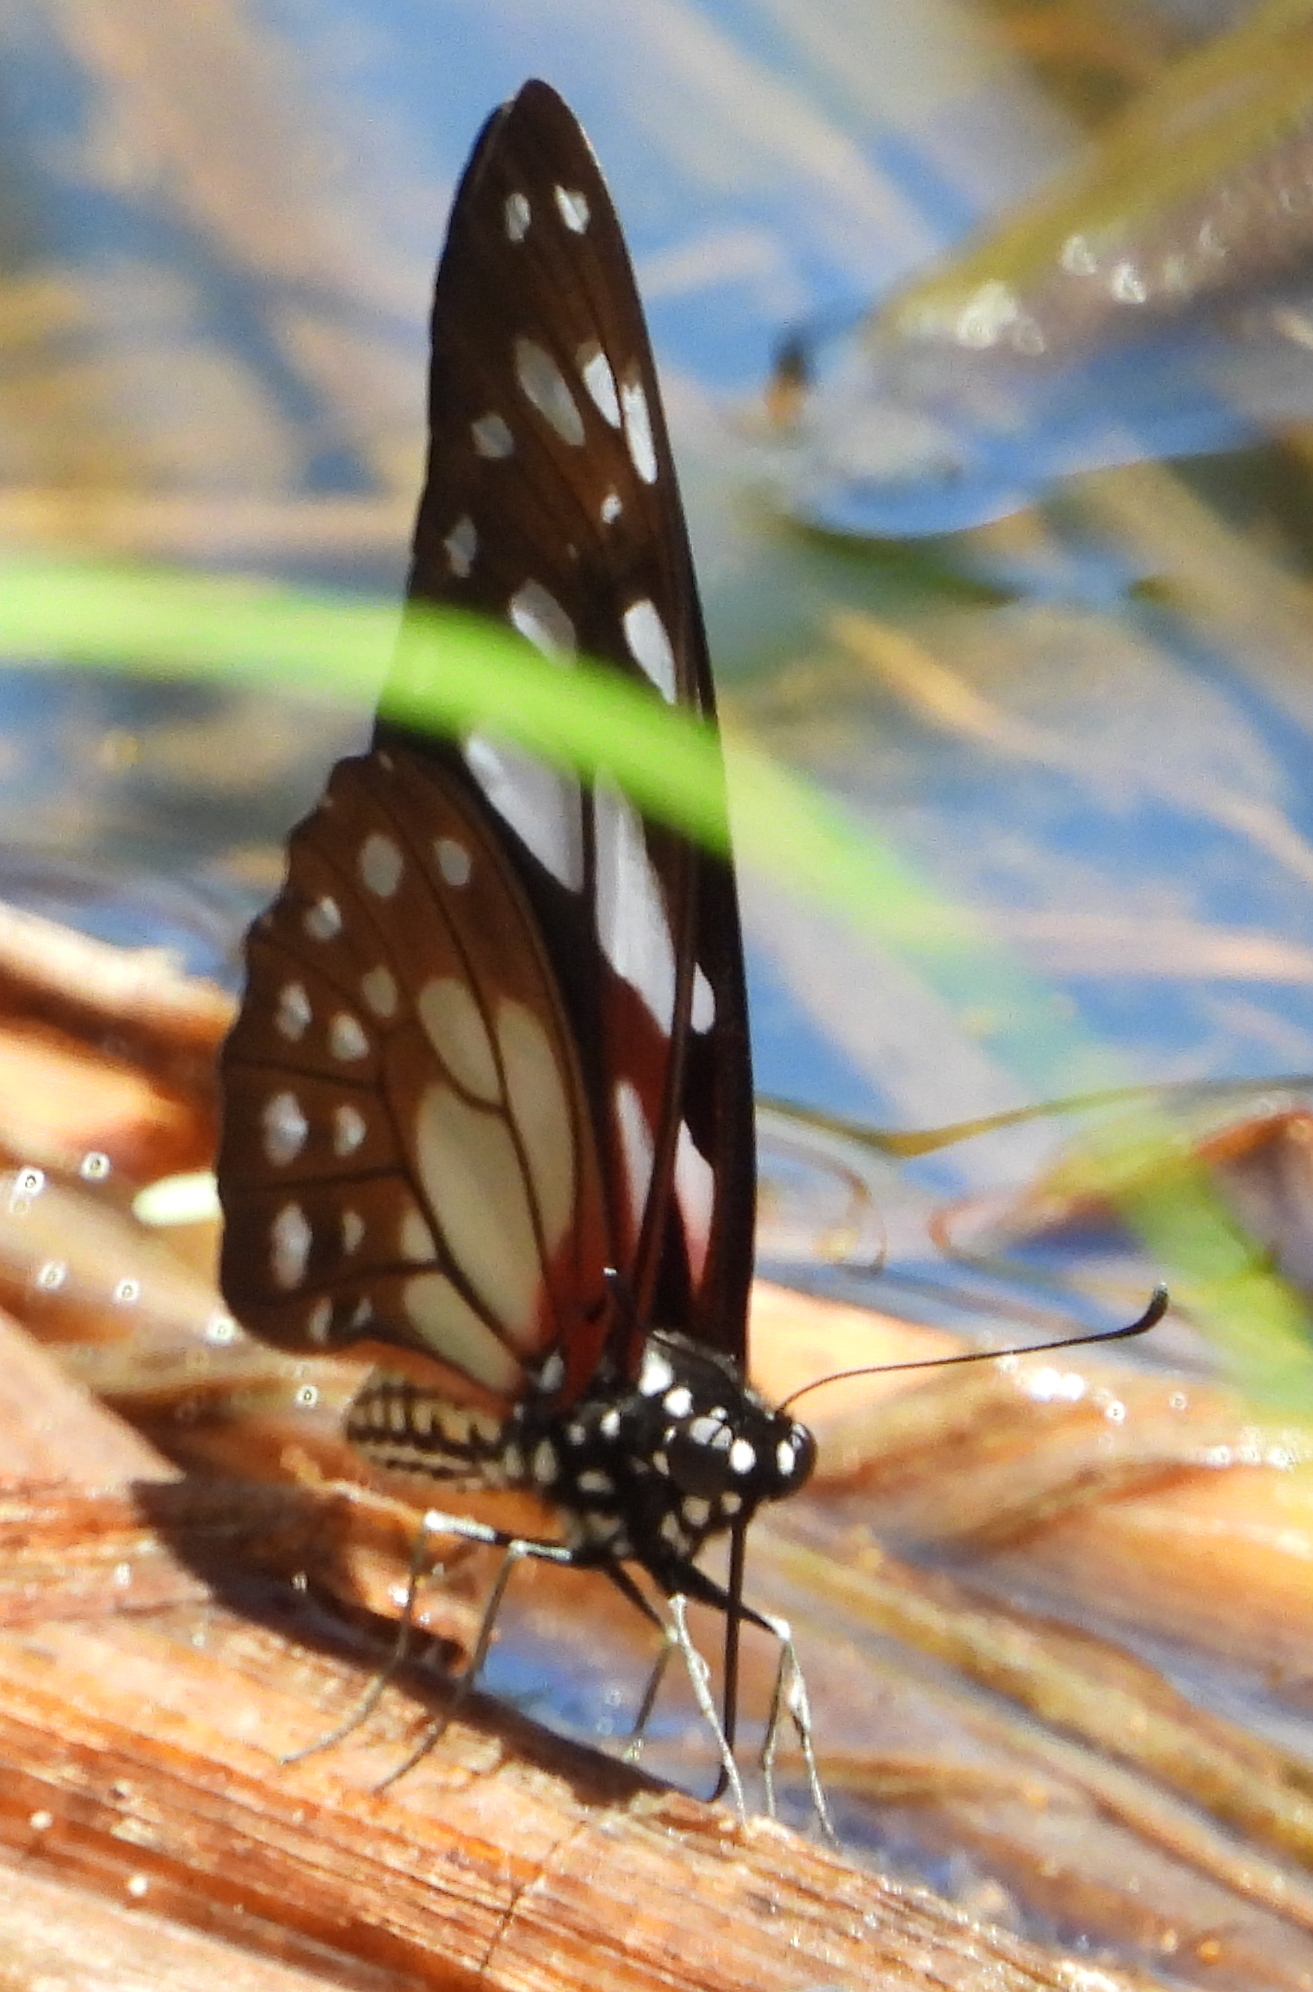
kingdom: Animalia
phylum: Arthropoda
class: Insecta
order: Lepidoptera
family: Papilionidae
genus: Graphium
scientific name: Graphium leonidas
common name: Common graphium
